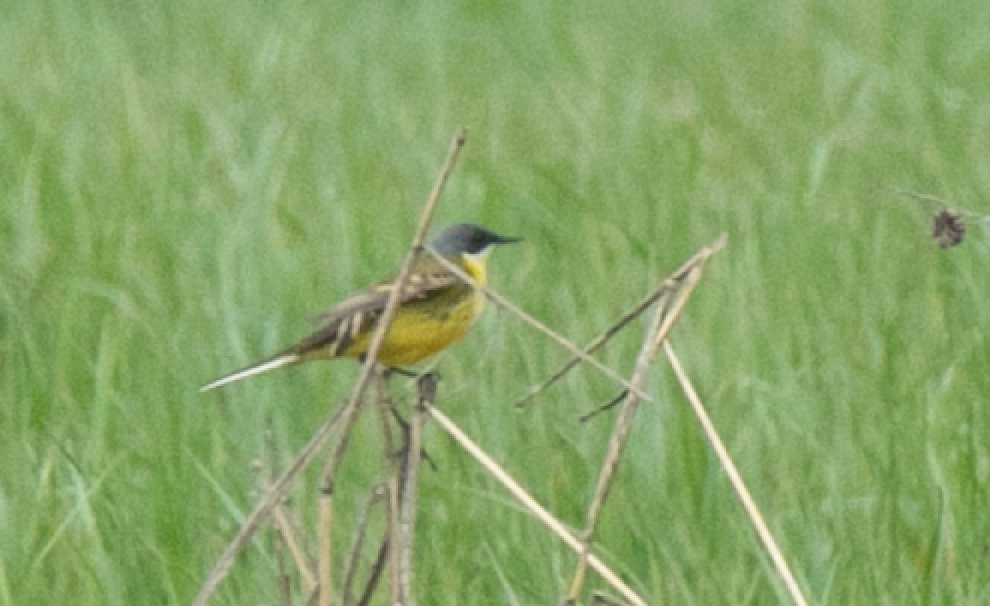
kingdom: Animalia
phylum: Chordata
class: Aves
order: Passeriformes
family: Motacillidae
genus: Motacilla
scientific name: Motacilla flava
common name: Western yellow wagtail
